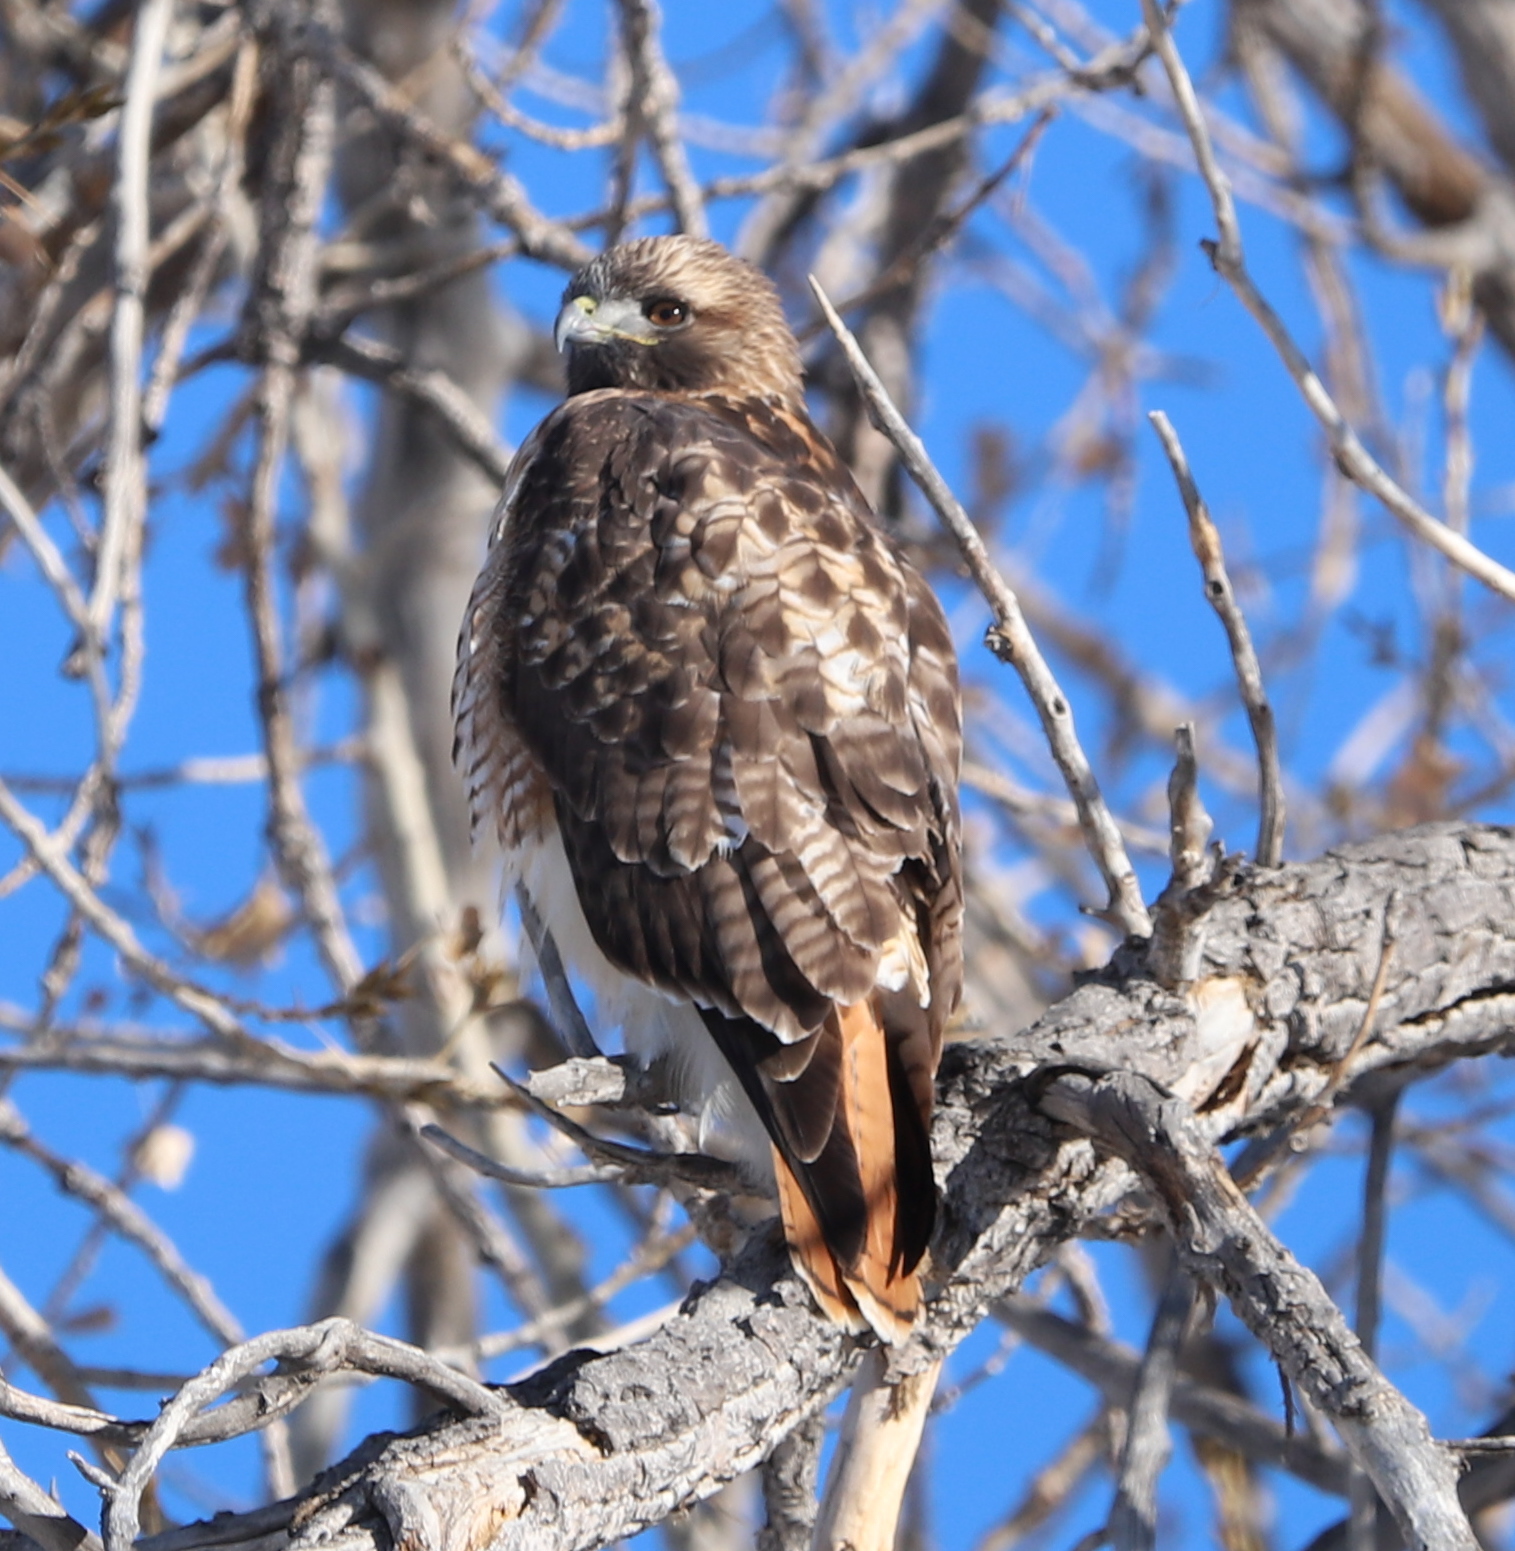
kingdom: Animalia
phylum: Chordata
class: Aves
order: Accipitriformes
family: Accipitridae
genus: Buteo
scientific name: Buteo jamaicensis
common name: Red-tailed hawk
